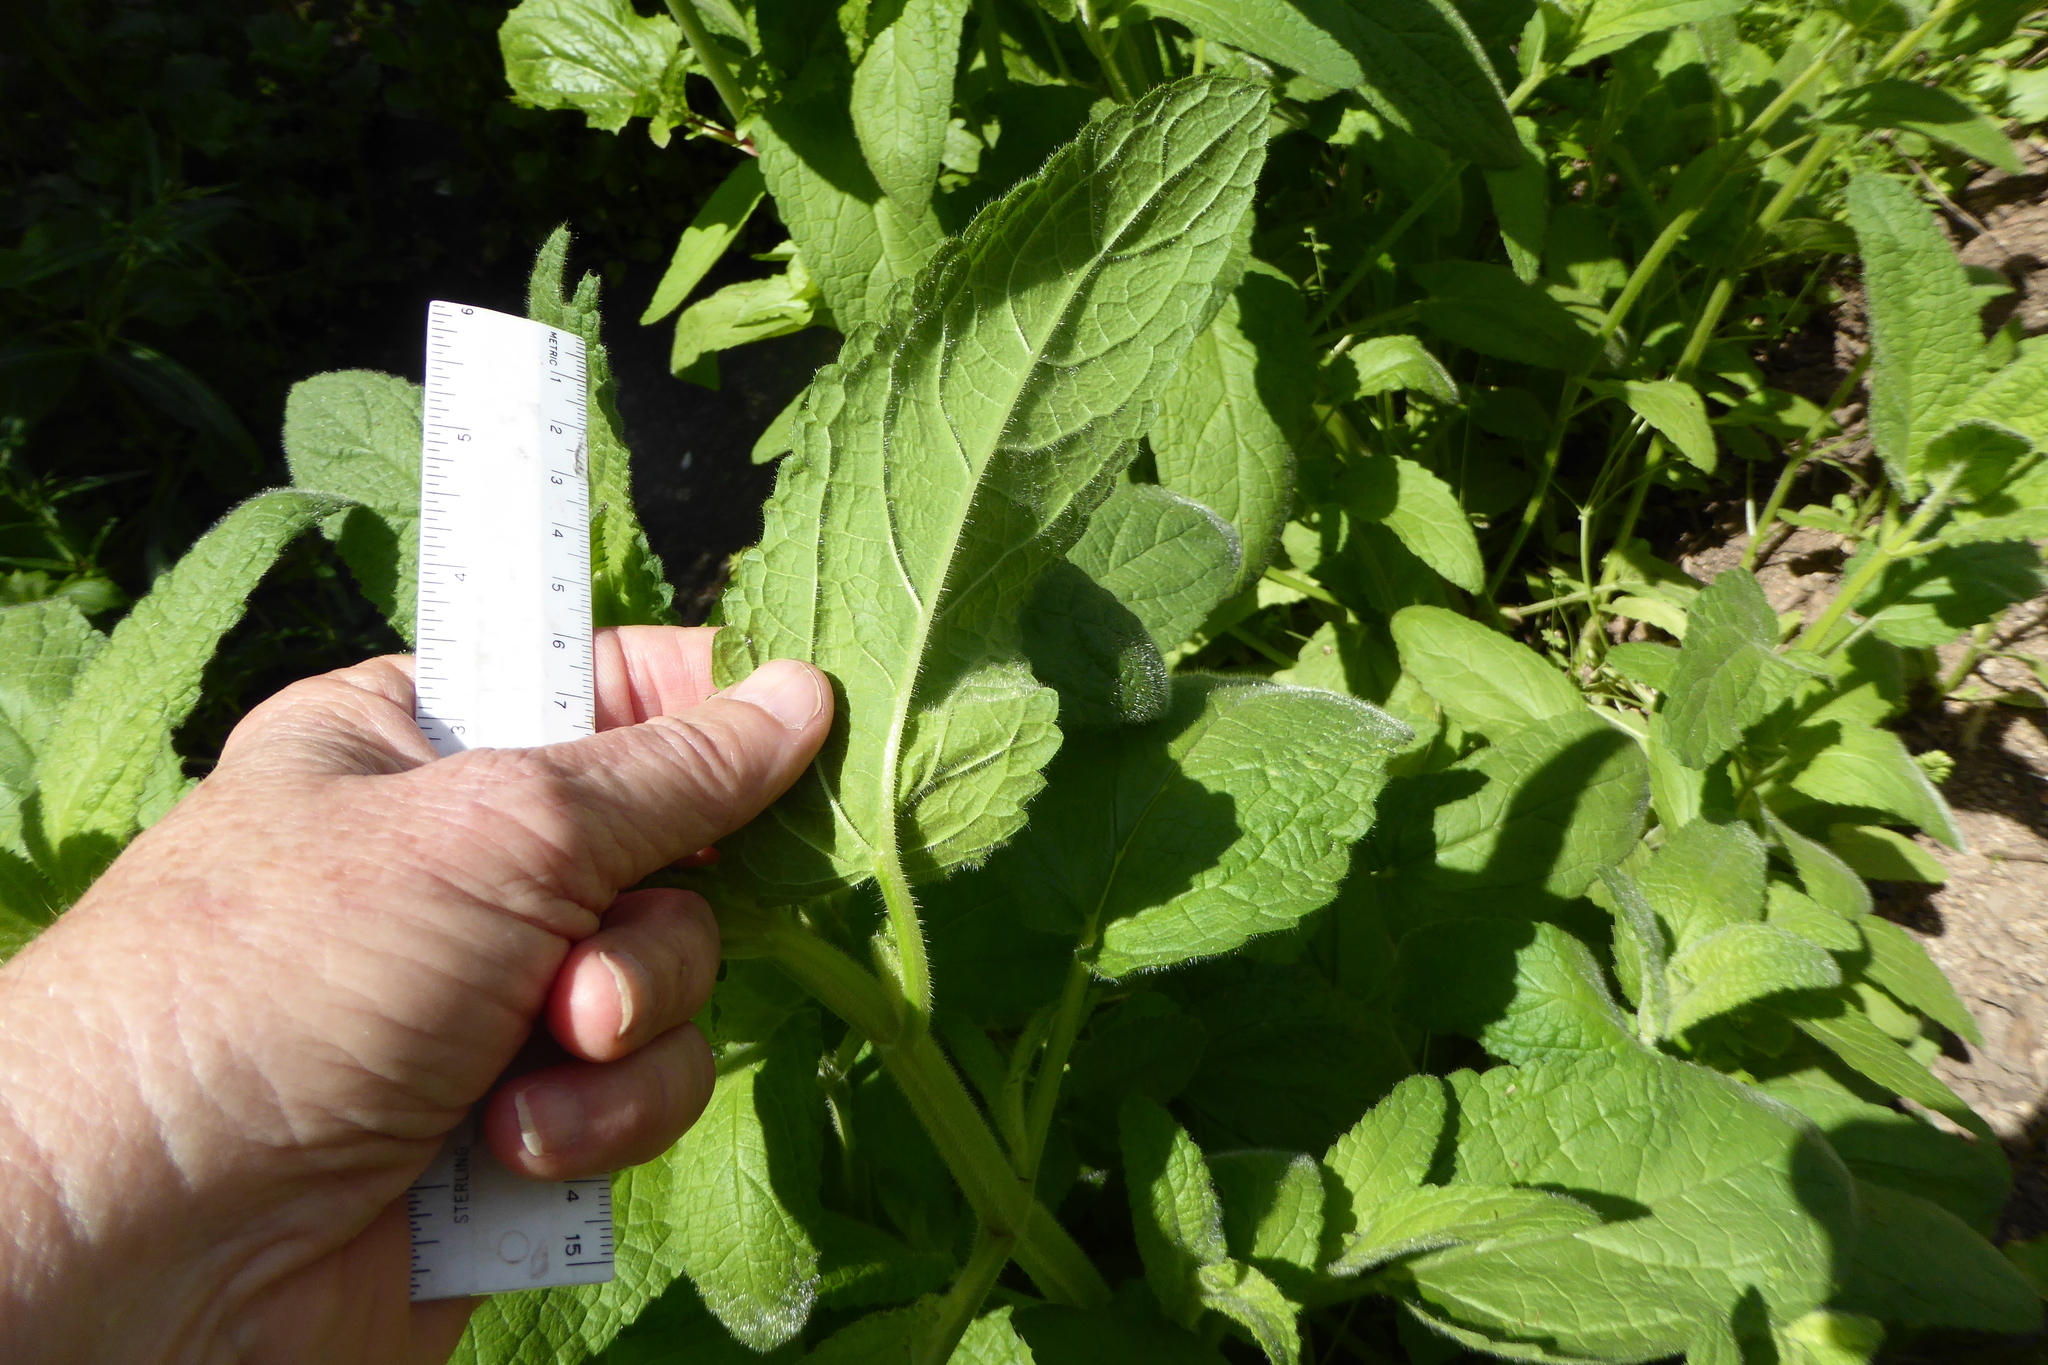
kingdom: Plantae
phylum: Tracheophyta
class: Magnoliopsida
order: Lamiales
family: Lamiaceae
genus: Stachys
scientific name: Stachys stebbinsii
